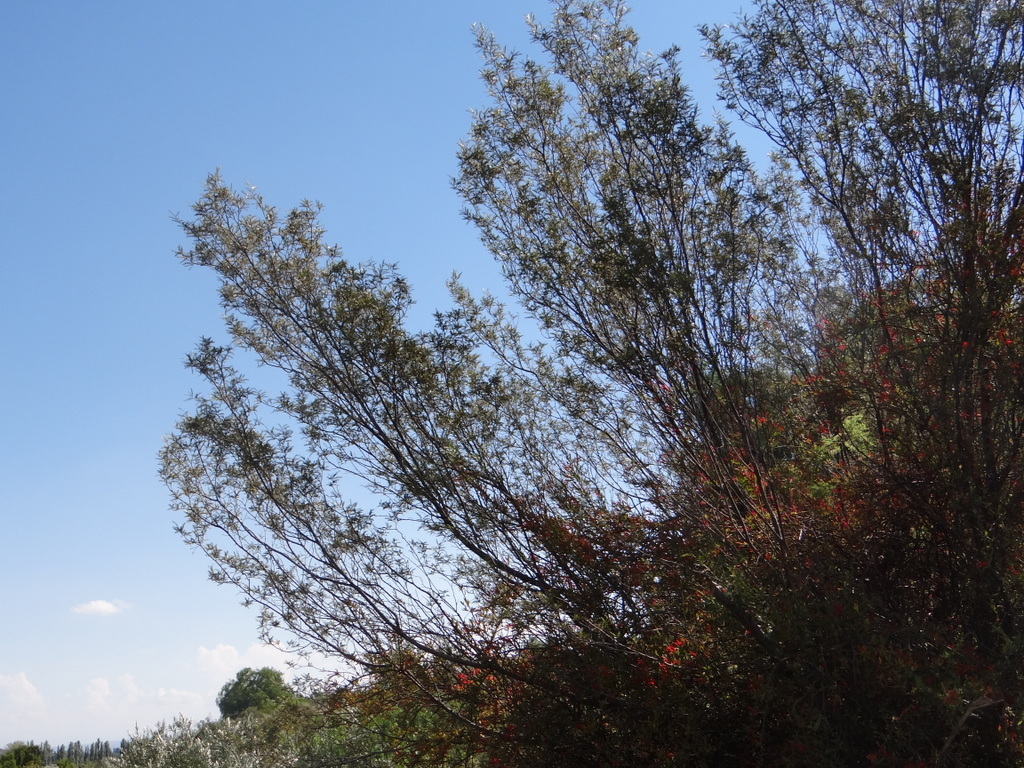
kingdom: Plantae
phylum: Tracheophyta
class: Magnoliopsida
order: Fabales
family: Fabaceae
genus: Zuccagnia
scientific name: Zuccagnia punctata
